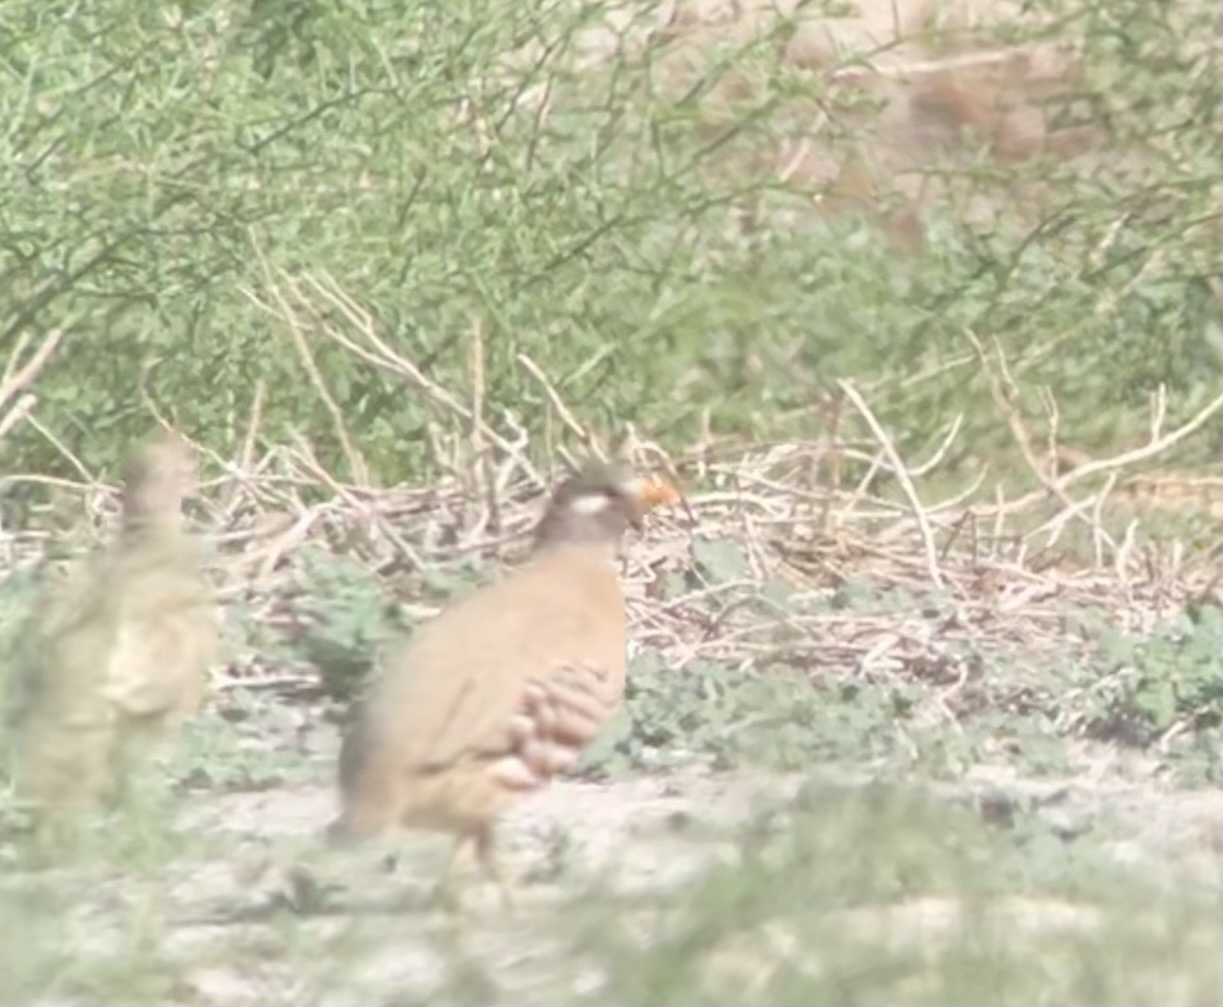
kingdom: Animalia
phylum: Chordata
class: Aves
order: Galliformes
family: Phasianidae
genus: Ammoperdix
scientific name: Ammoperdix heyi
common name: Sand partridge
